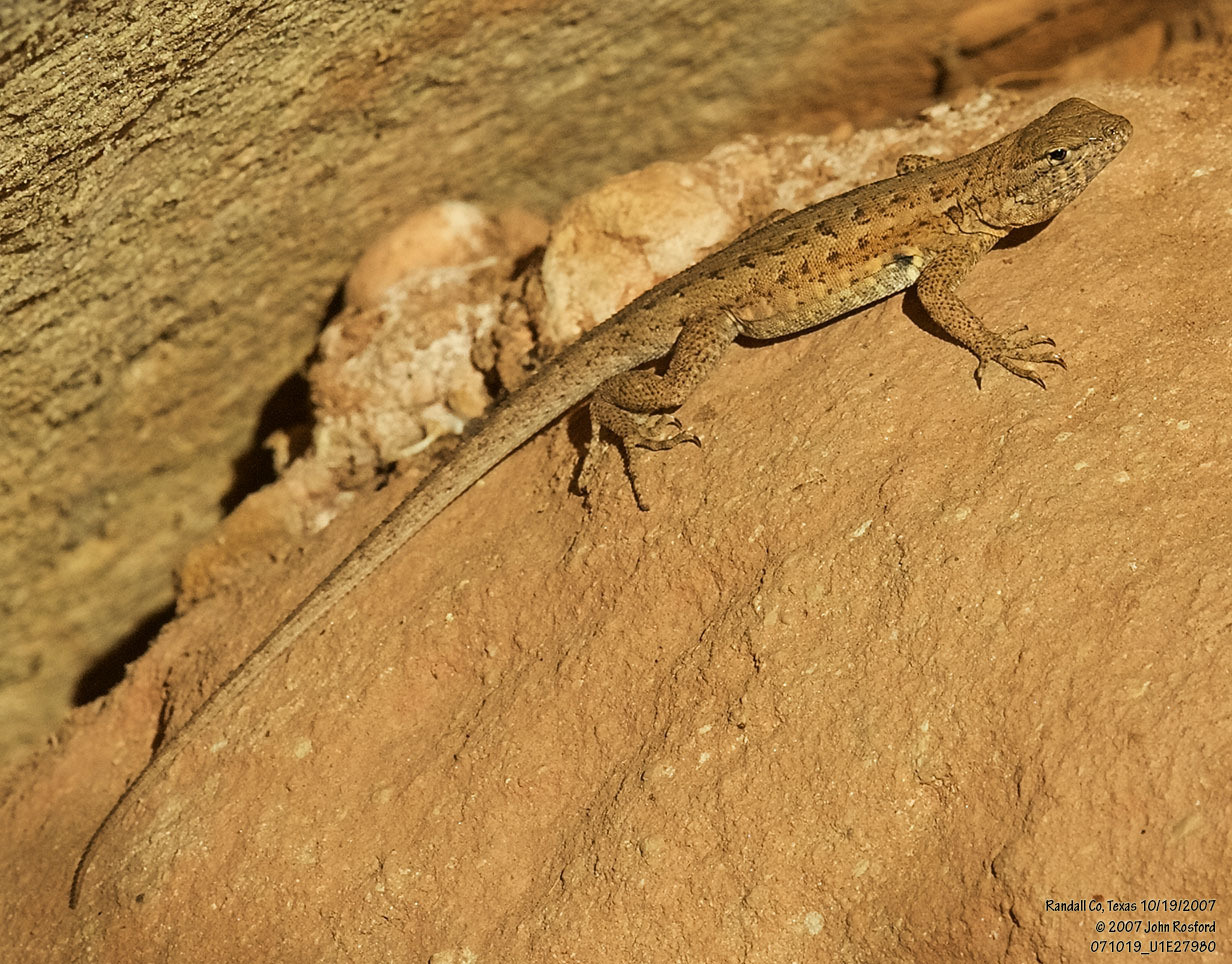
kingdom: Animalia
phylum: Chordata
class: Squamata
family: Phrynosomatidae
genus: Uta
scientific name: Uta stansburiana
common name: Side-blotched lizard
